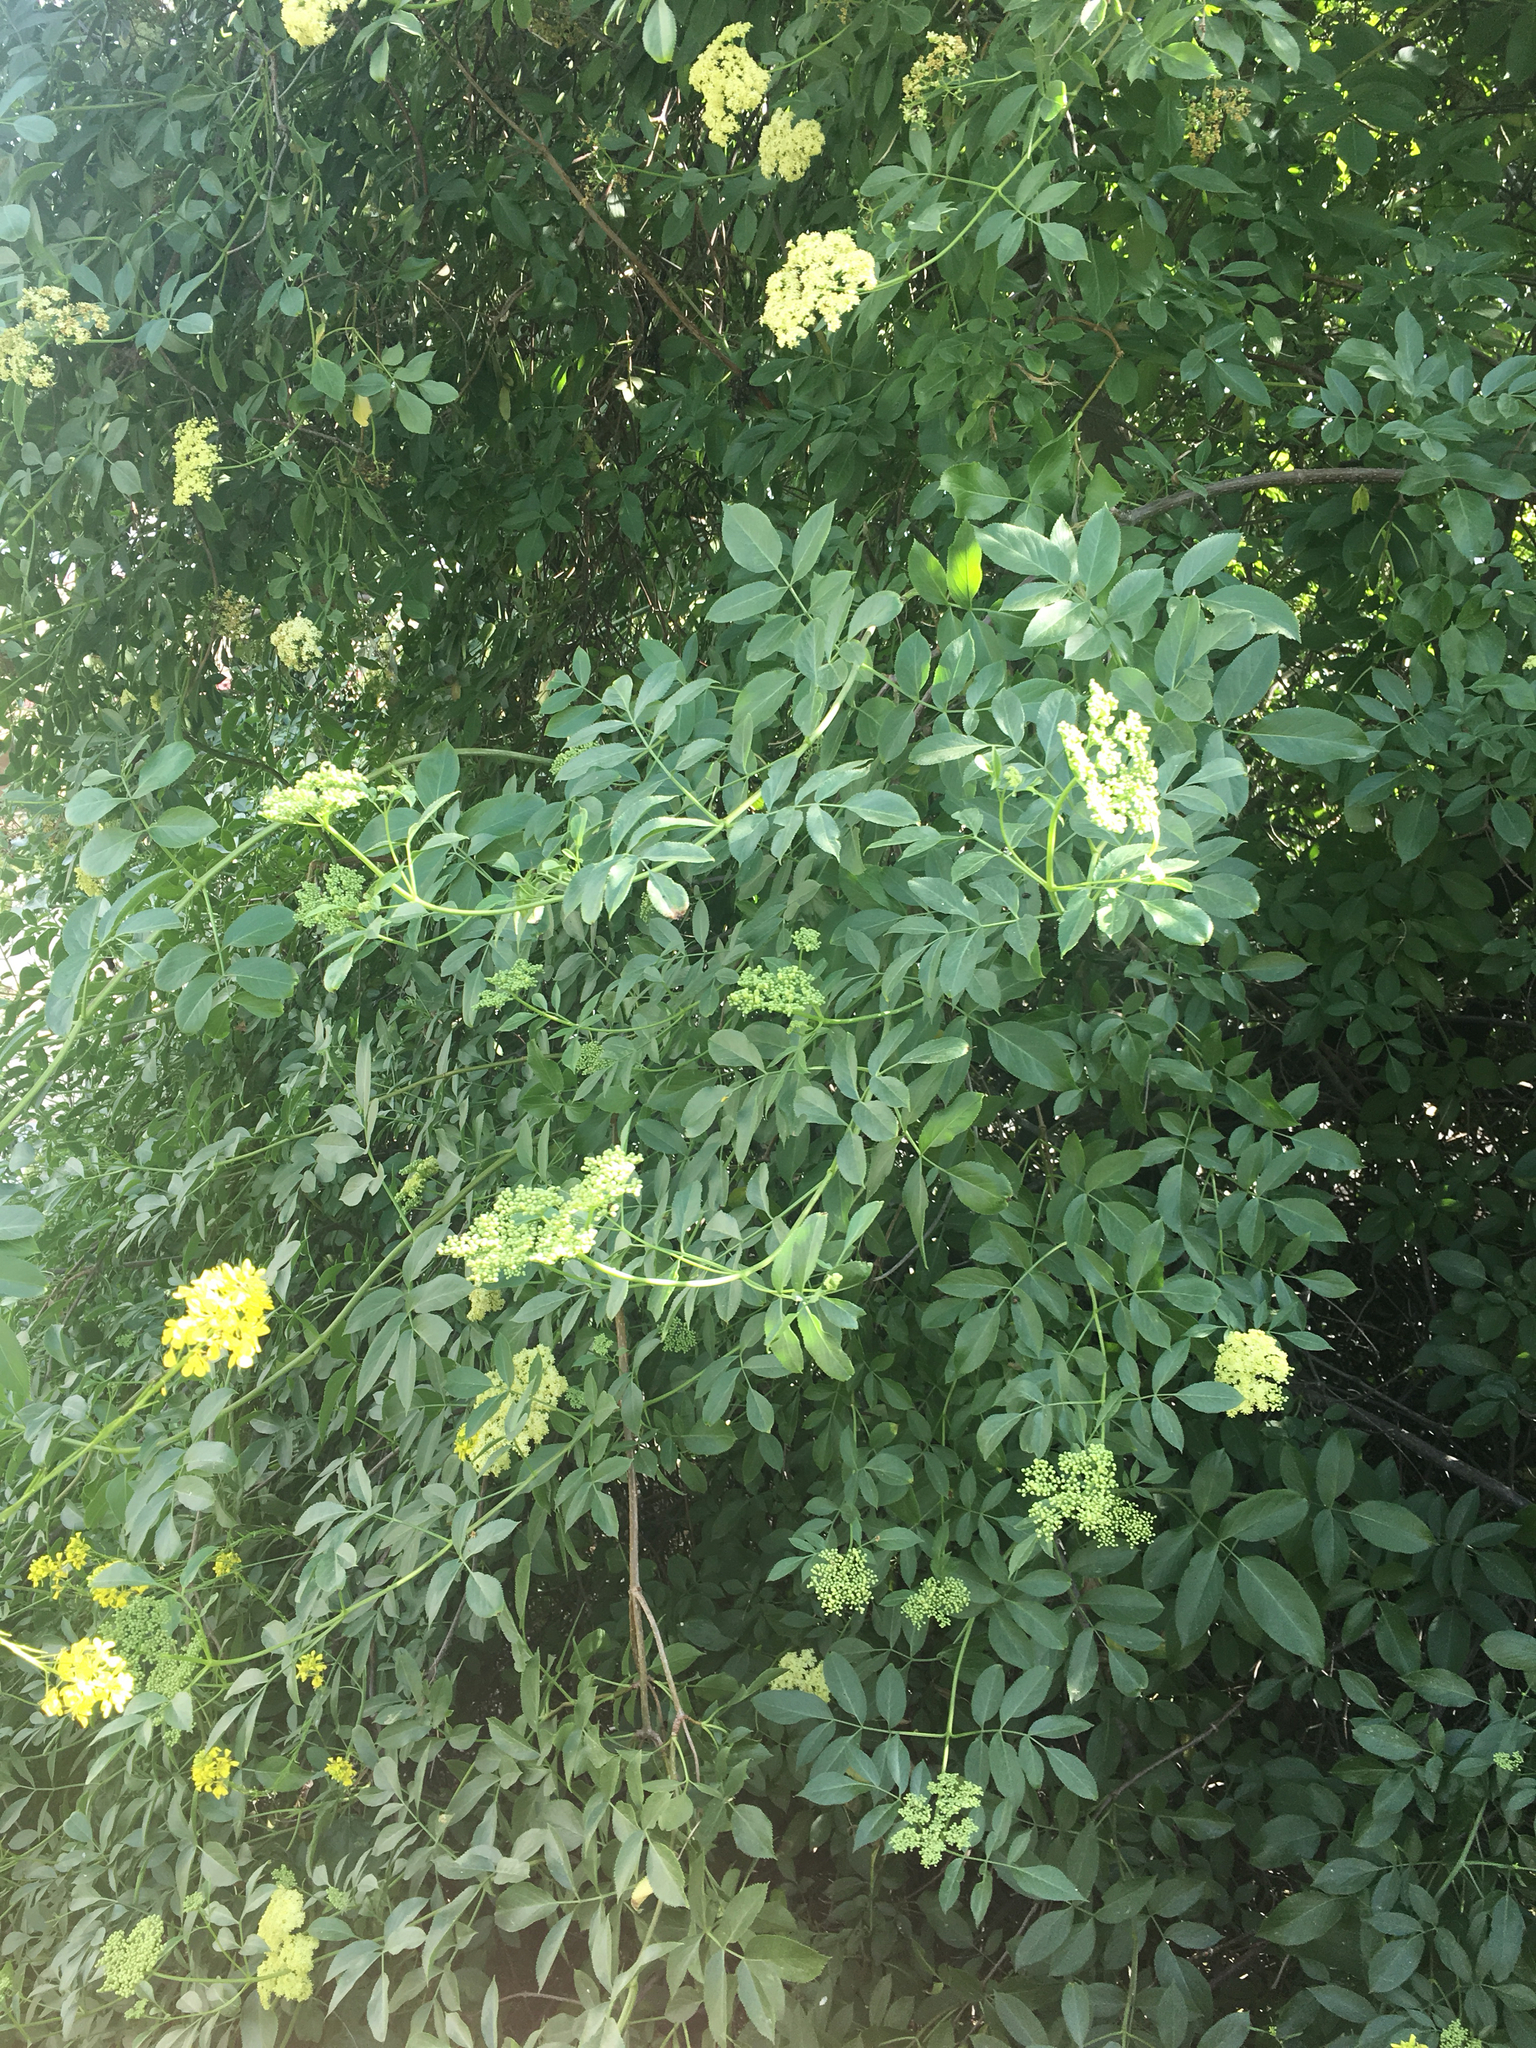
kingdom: Plantae
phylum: Tracheophyta
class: Magnoliopsida
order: Dipsacales
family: Viburnaceae
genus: Sambucus
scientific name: Sambucus cerulea
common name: Blue elder
